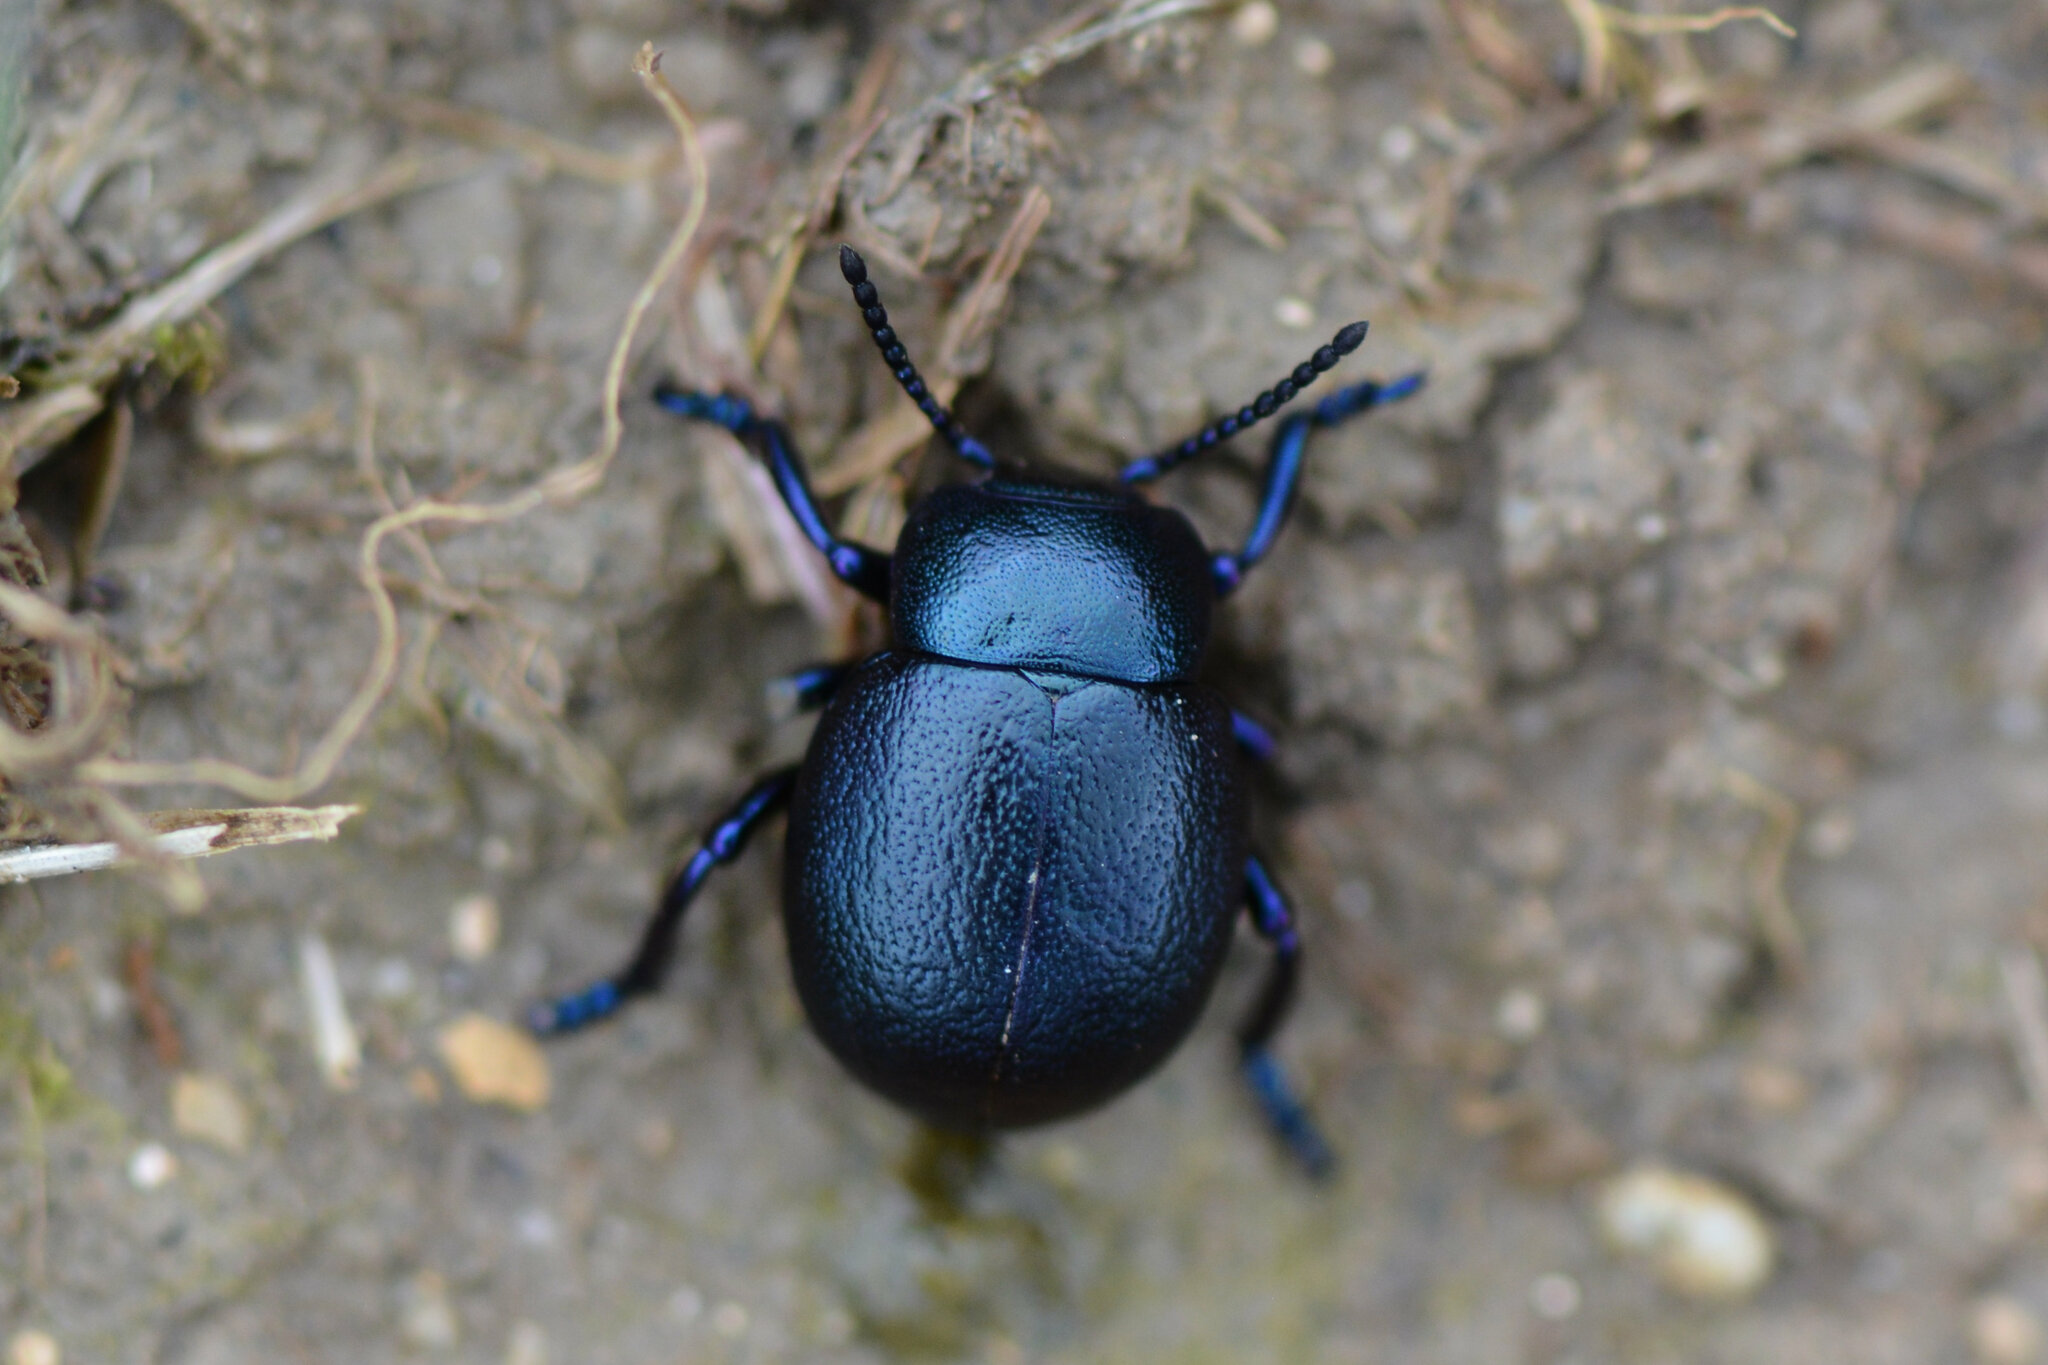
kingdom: Animalia
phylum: Arthropoda
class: Insecta
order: Coleoptera
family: Chrysomelidae
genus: Timarcha
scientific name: Timarcha goettingensis
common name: Small bloody-nosed beetle
